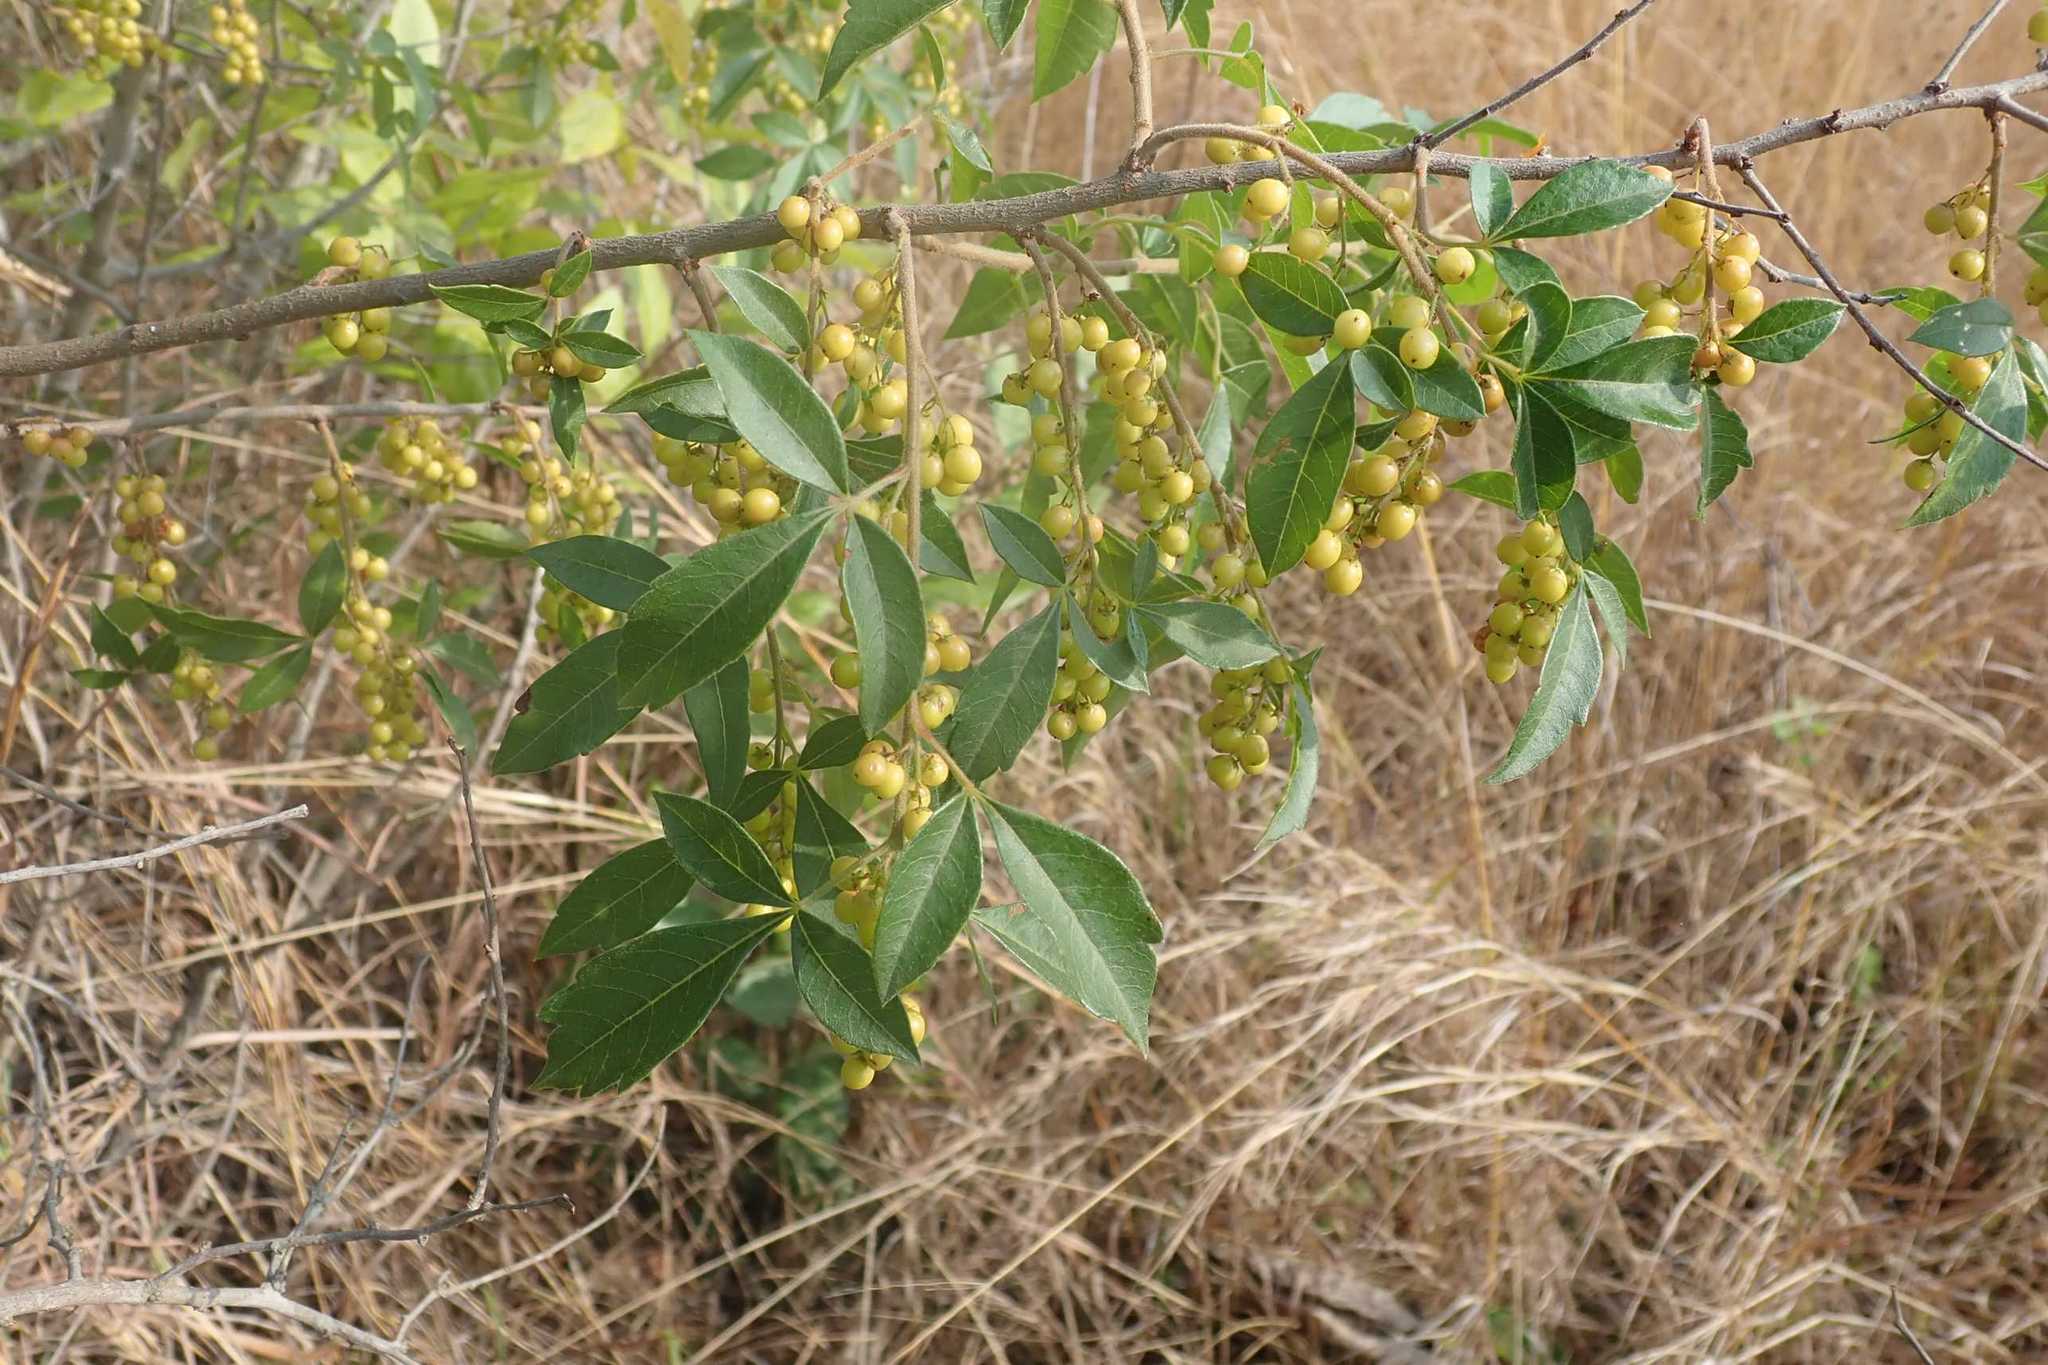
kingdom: Plantae
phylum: Tracheophyta
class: Magnoliopsida
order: Sapindales
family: Anacardiaceae
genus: Searsia
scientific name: Searsia transvaalensis
